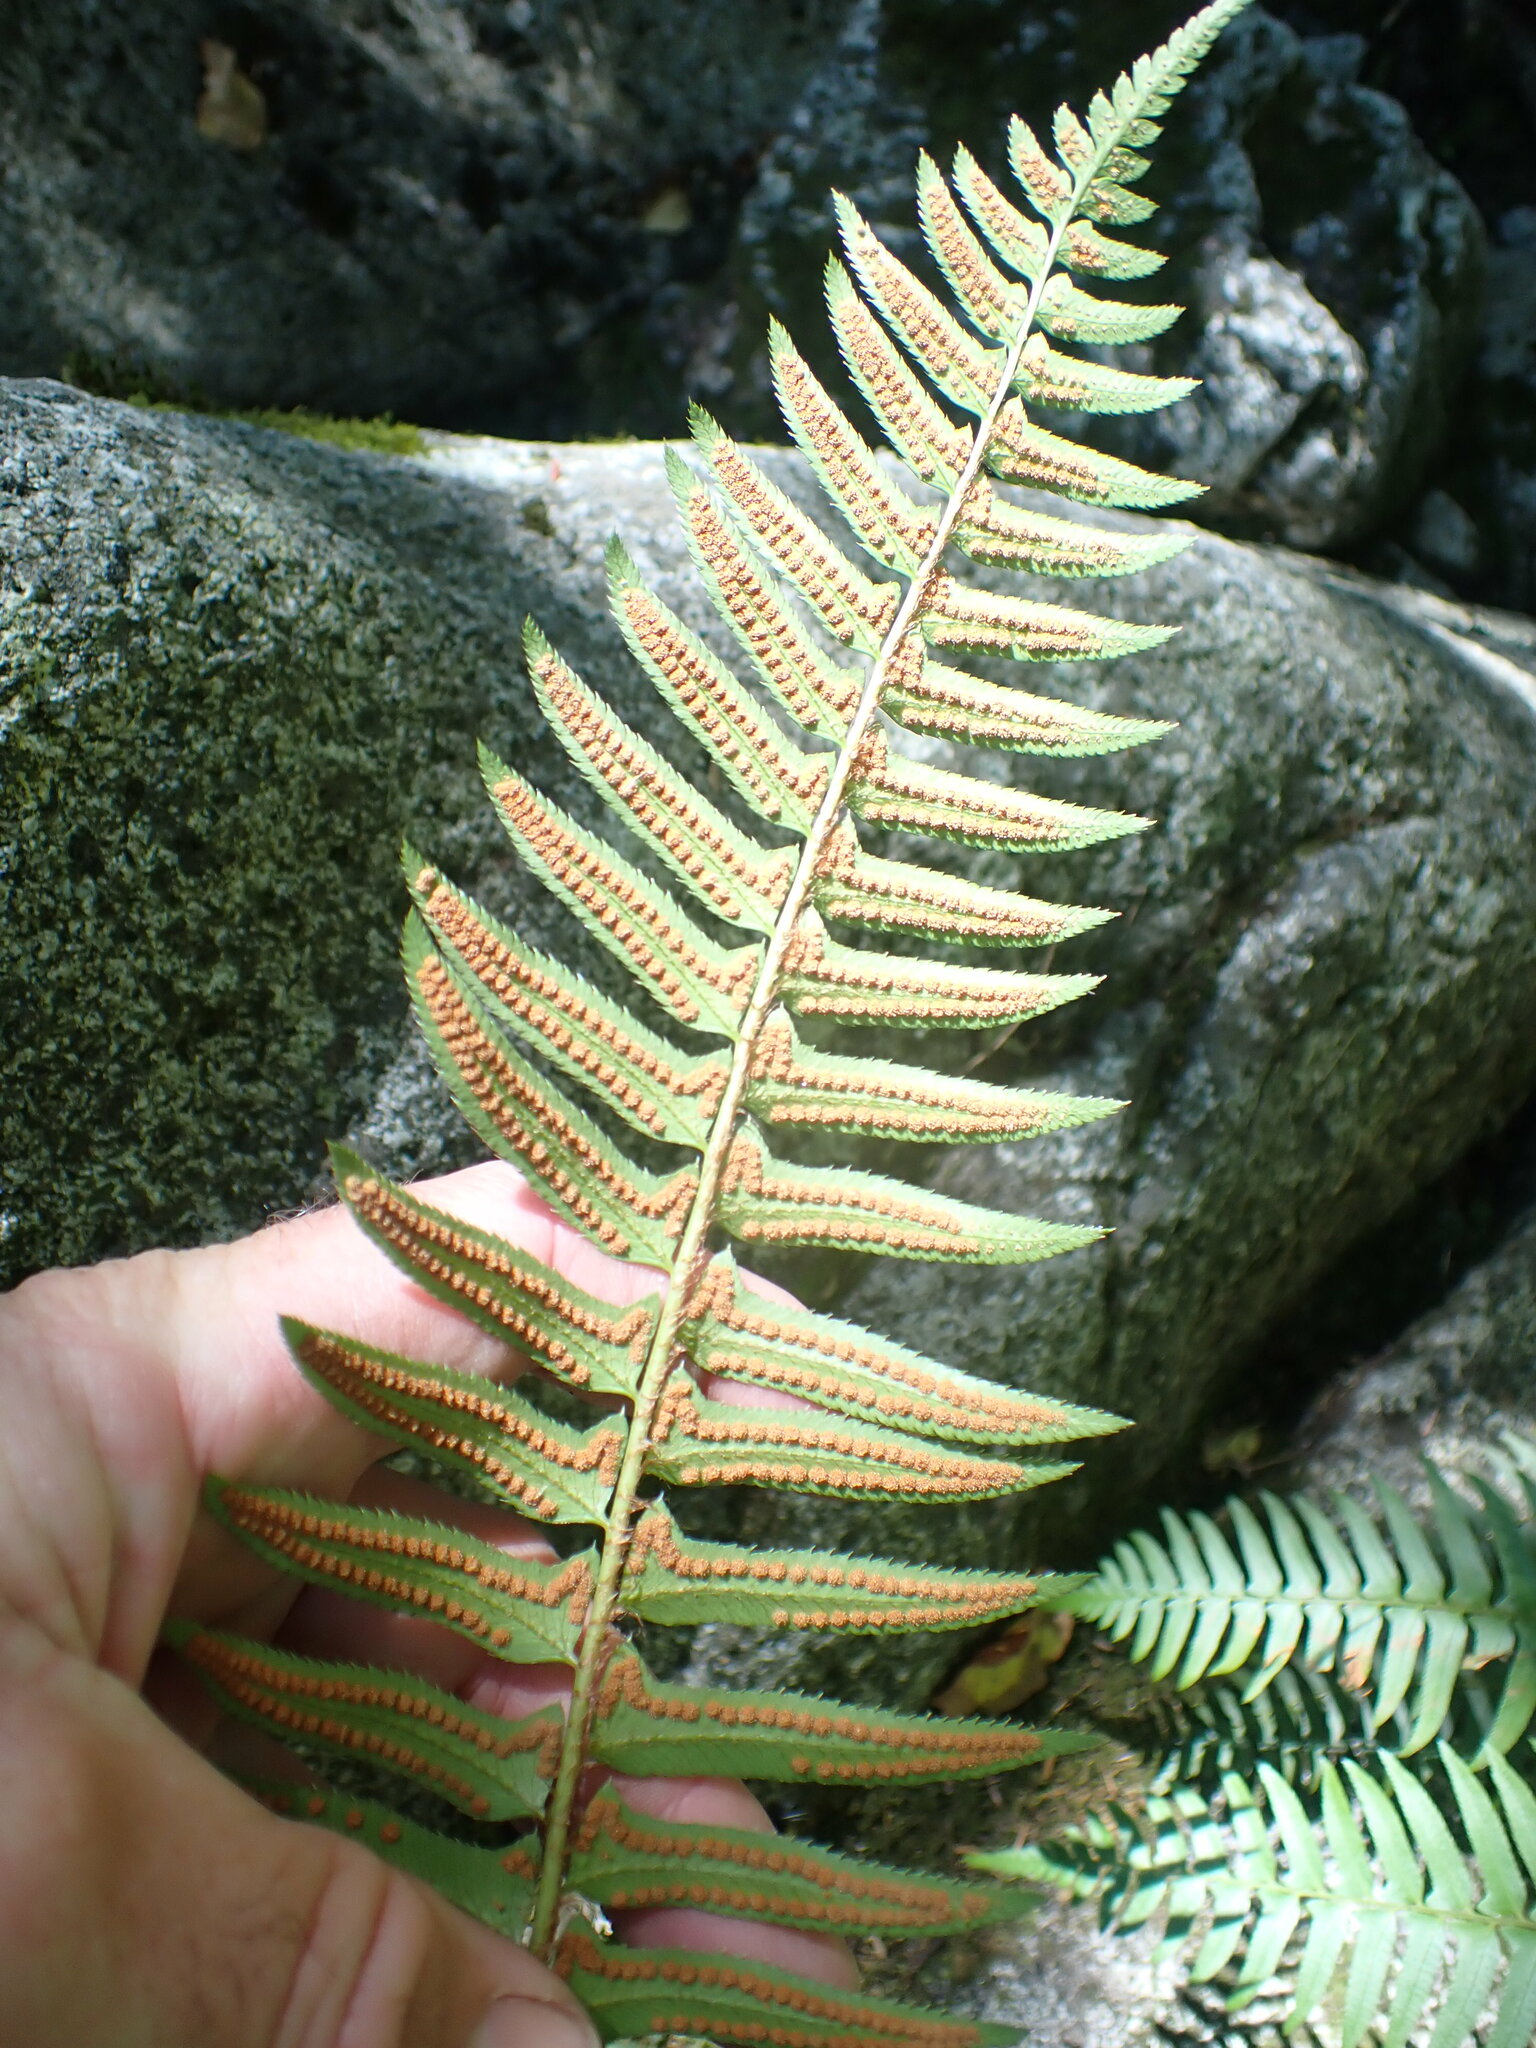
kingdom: Plantae
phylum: Tracheophyta
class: Polypodiopsida
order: Polypodiales
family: Dryopteridaceae
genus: Polystichum
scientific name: Polystichum munitum
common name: Western sword-fern
